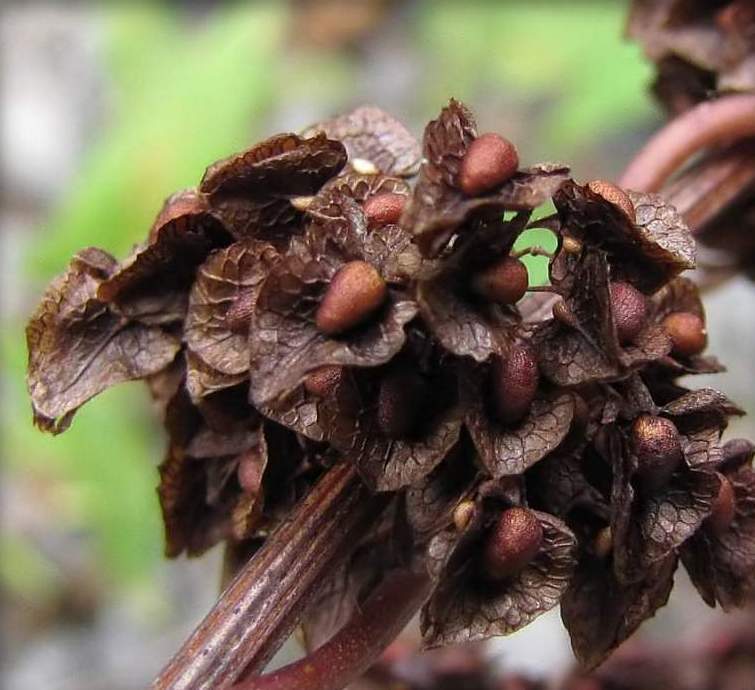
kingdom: Plantae
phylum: Tracheophyta
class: Magnoliopsida
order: Caryophyllales
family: Polygonaceae
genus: Rumex
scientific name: Rumex crispus
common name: Curled dock
